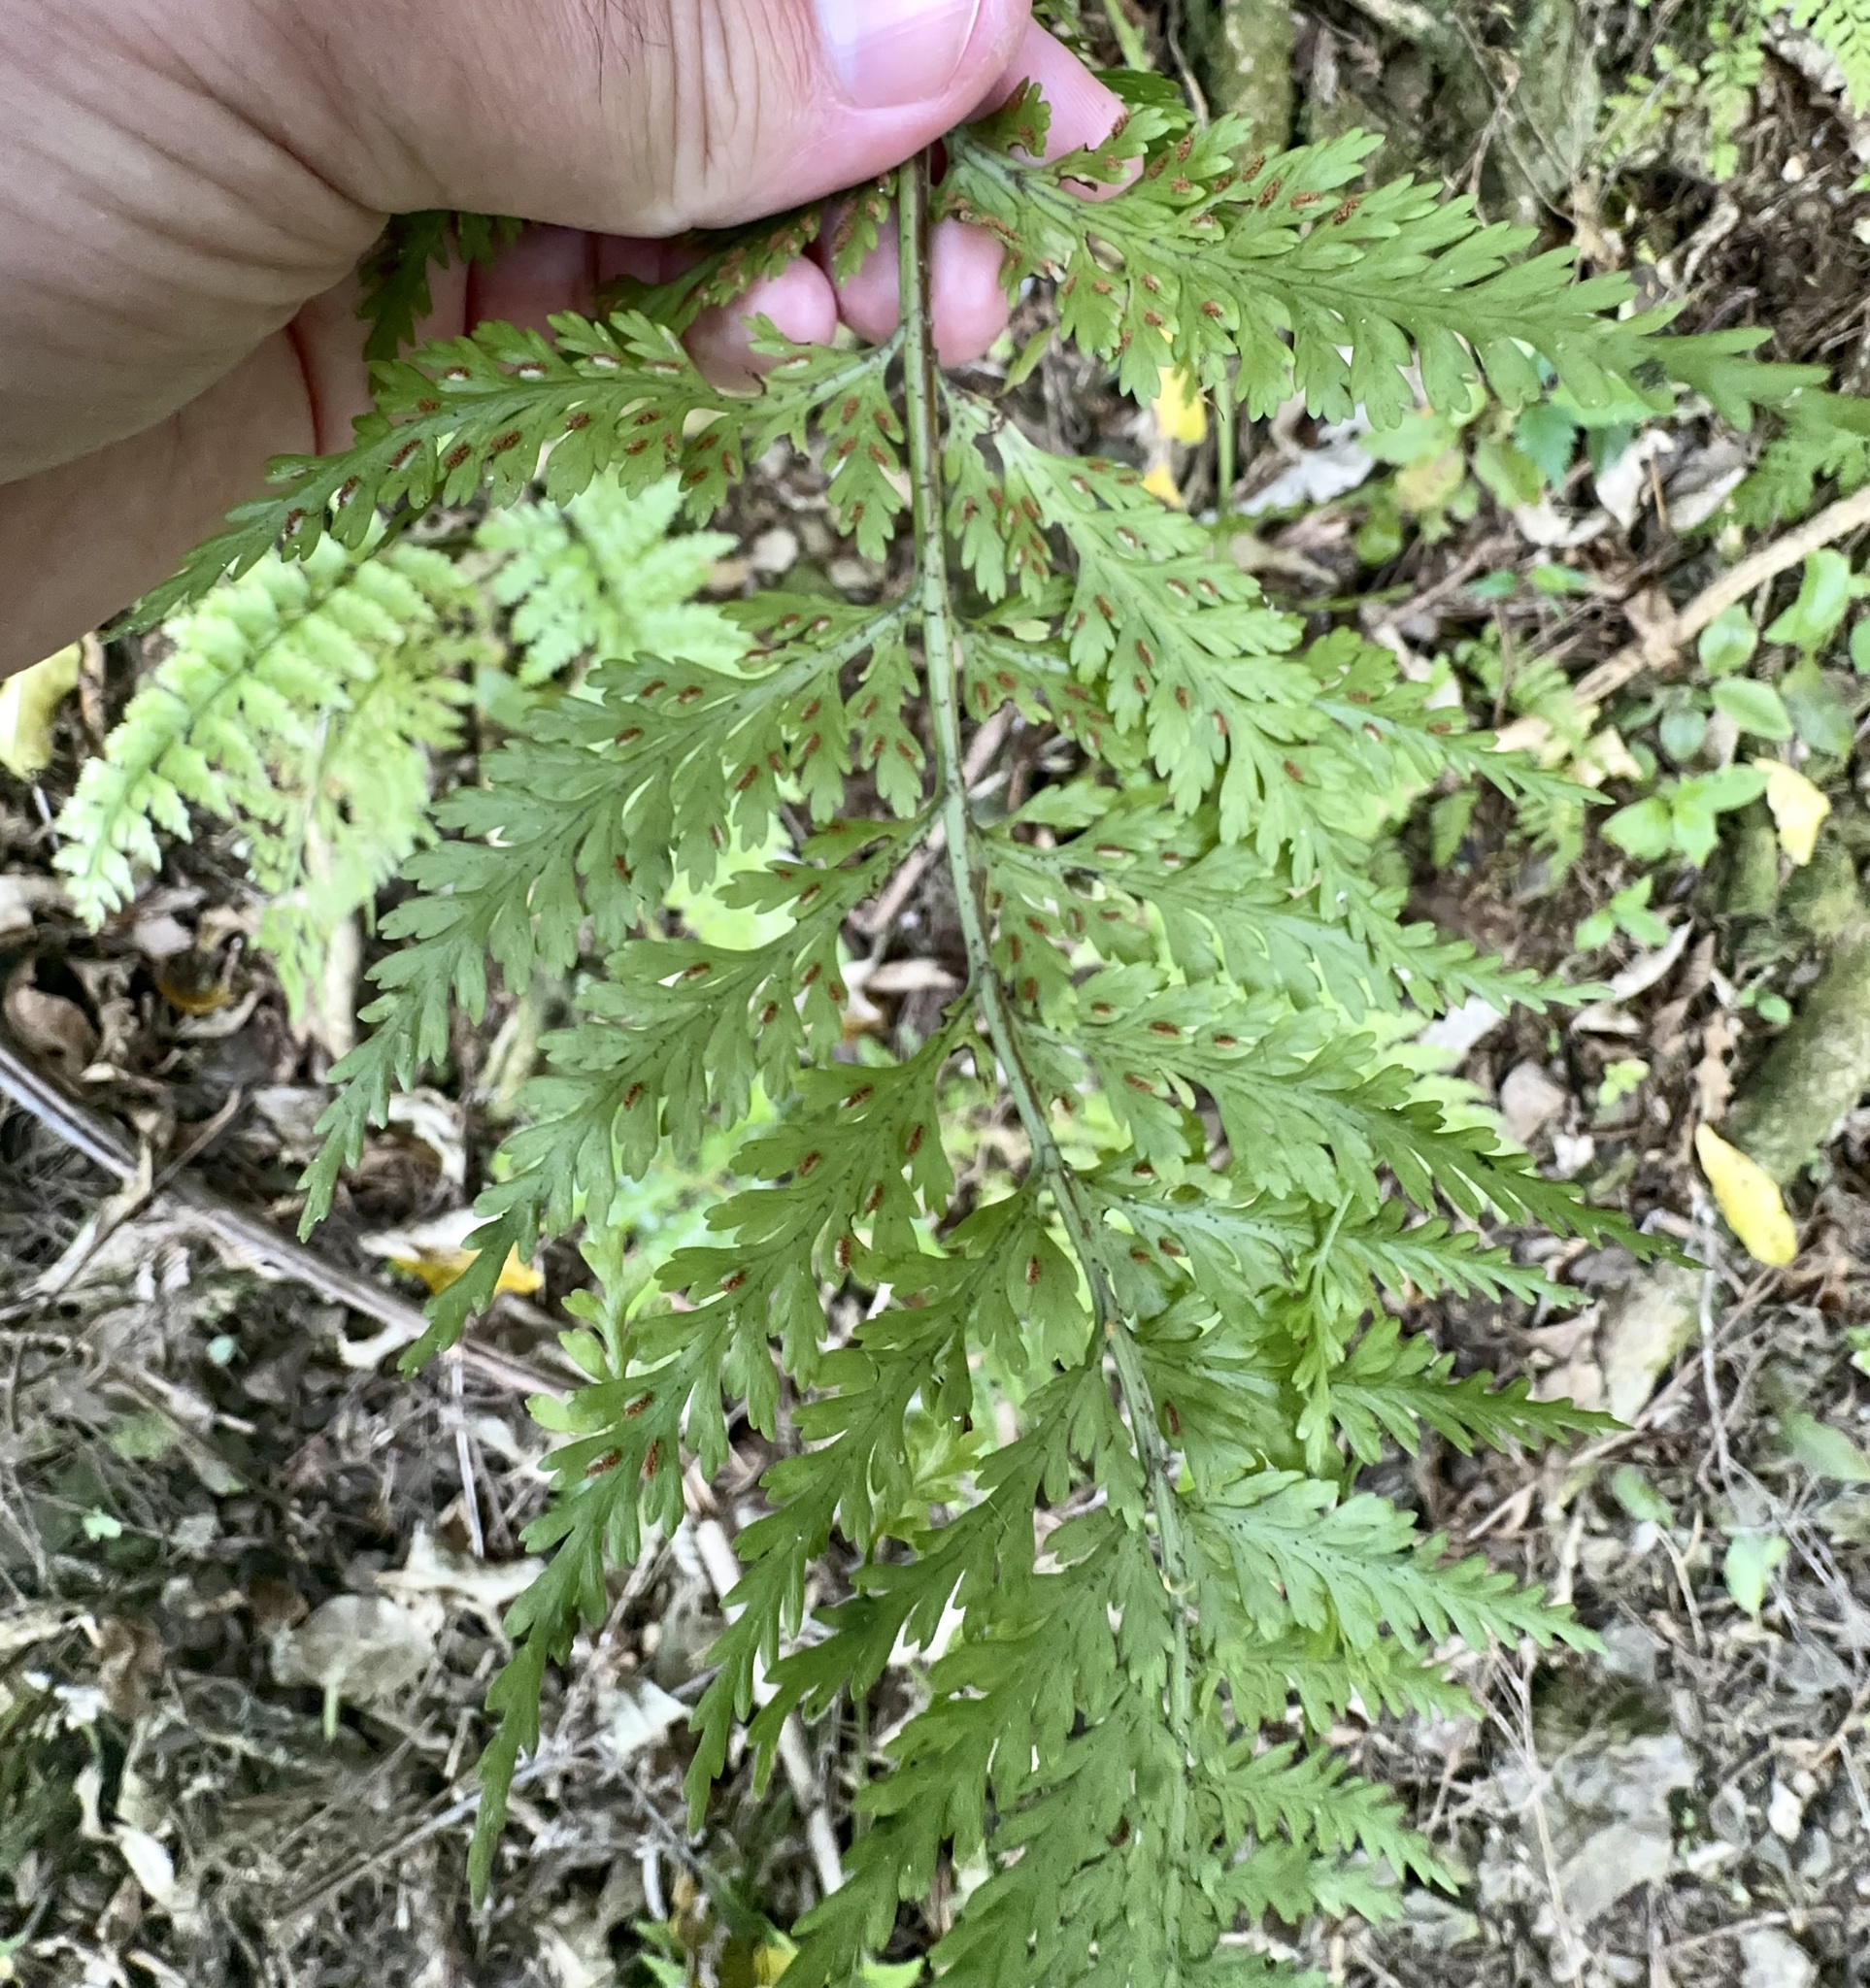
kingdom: Plantae
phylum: Tracheophyta
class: Polypodiopsida
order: Polypodiales
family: Aspleniaceae
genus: Asplenium
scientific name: Asplenium bulbiferum
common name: Mother fern
